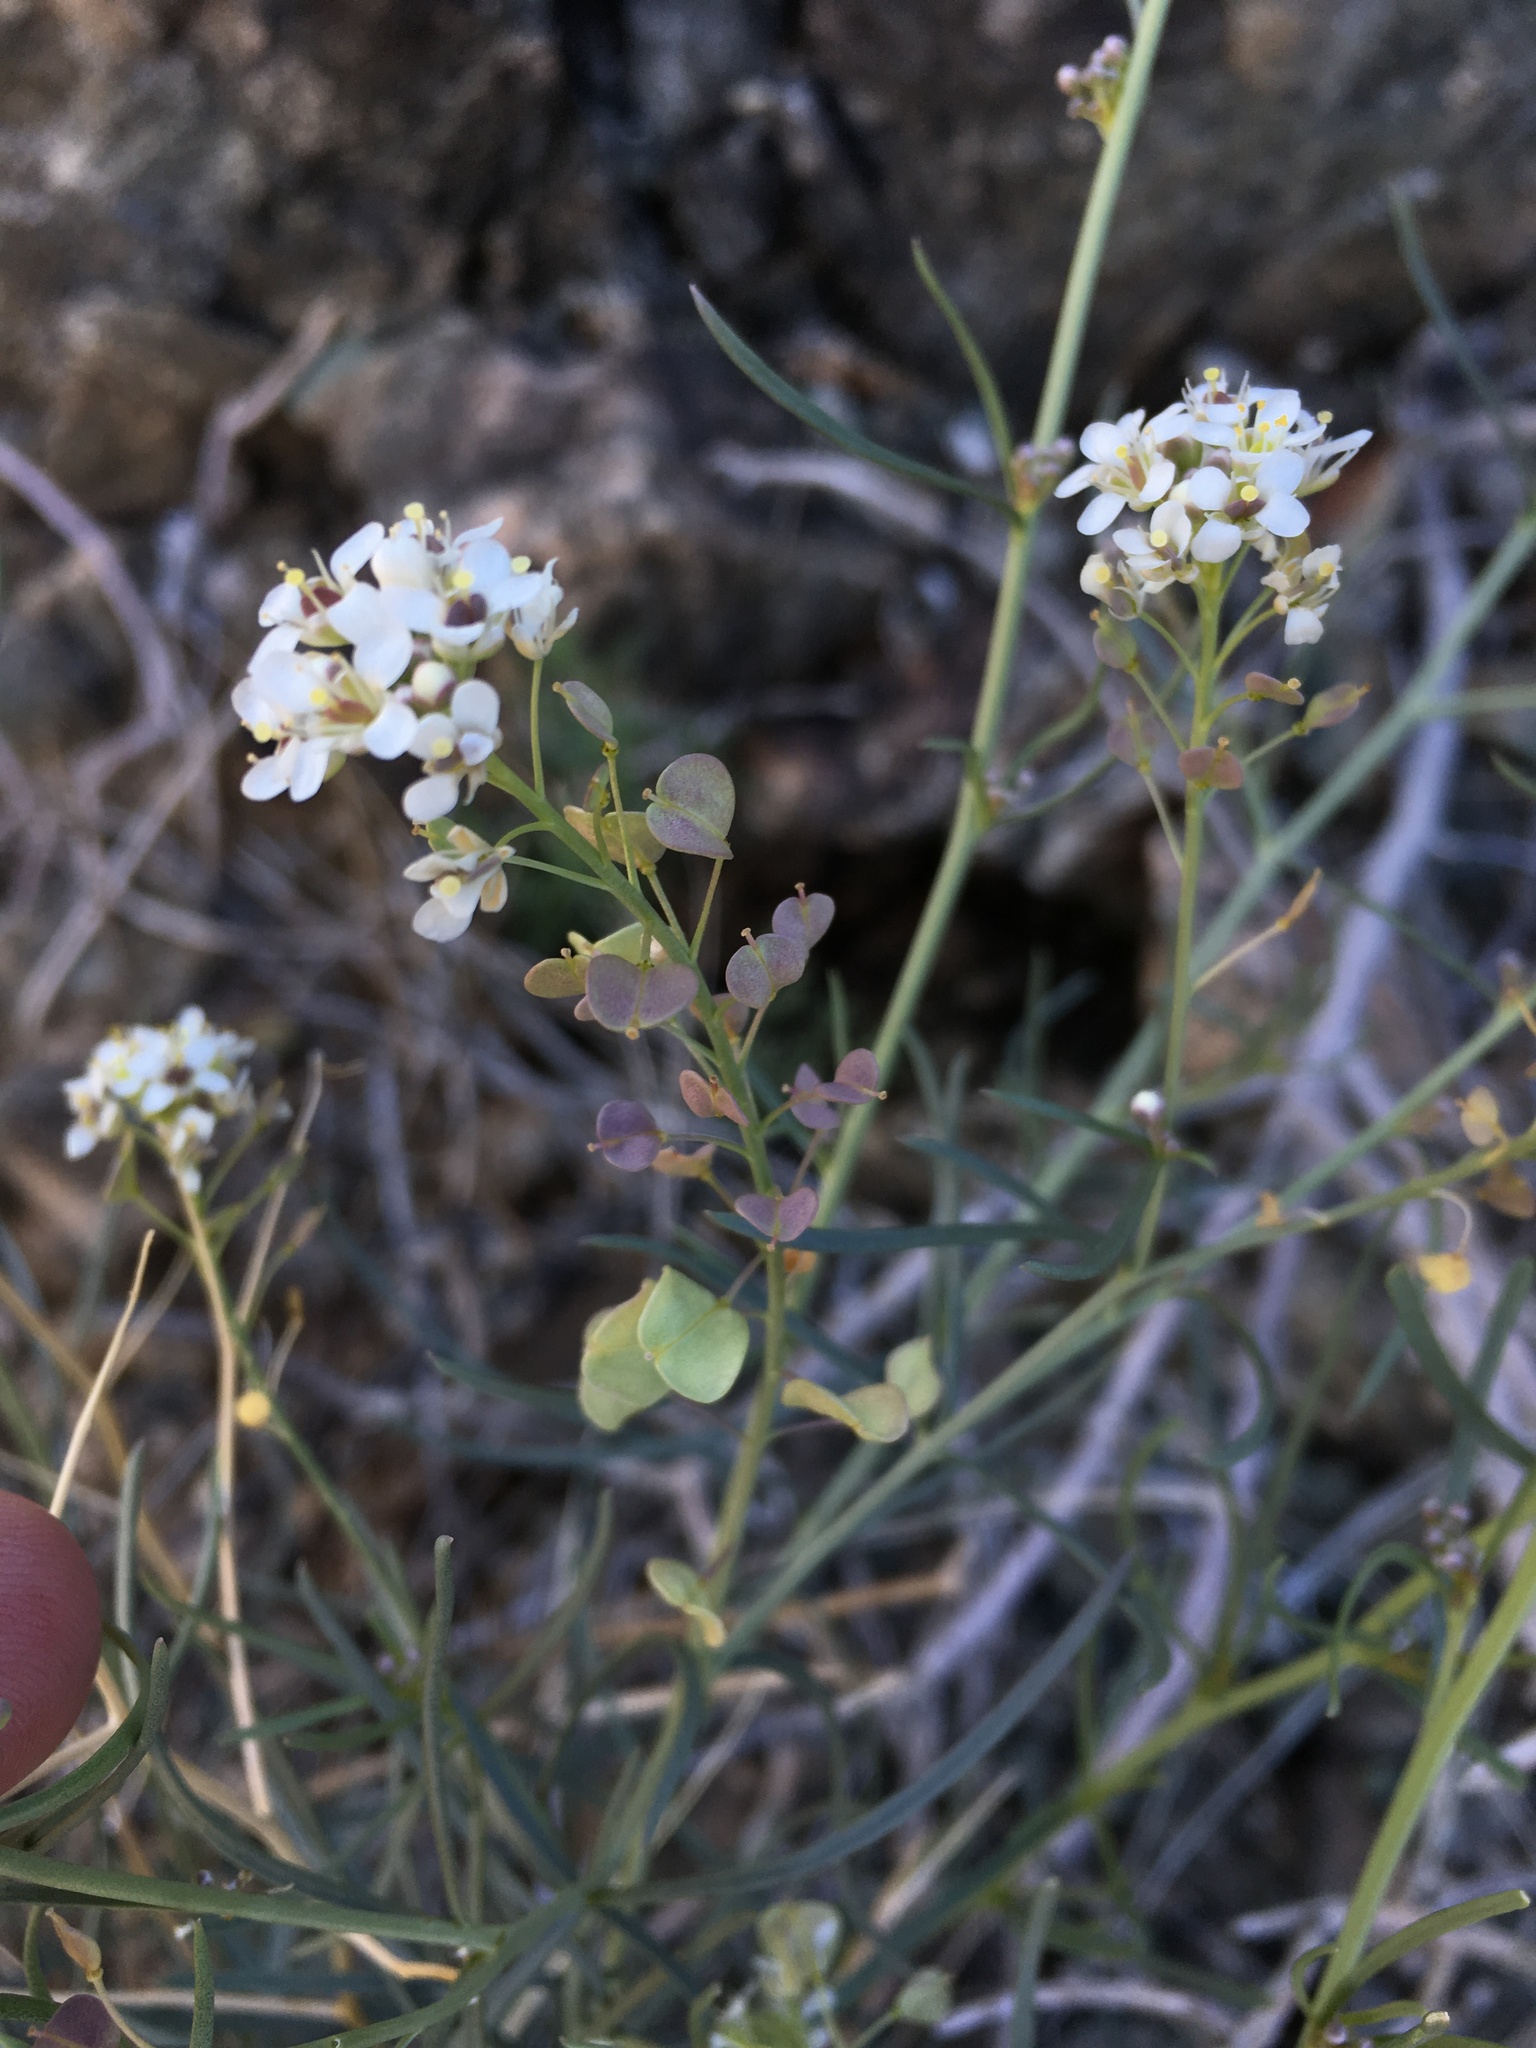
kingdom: Plantae
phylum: Tracheophyta
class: Magnoliopsida
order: Brassicales
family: Brassicaceae
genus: Lepidium
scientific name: Lepidium fremontii
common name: Fremont's pepperwort
